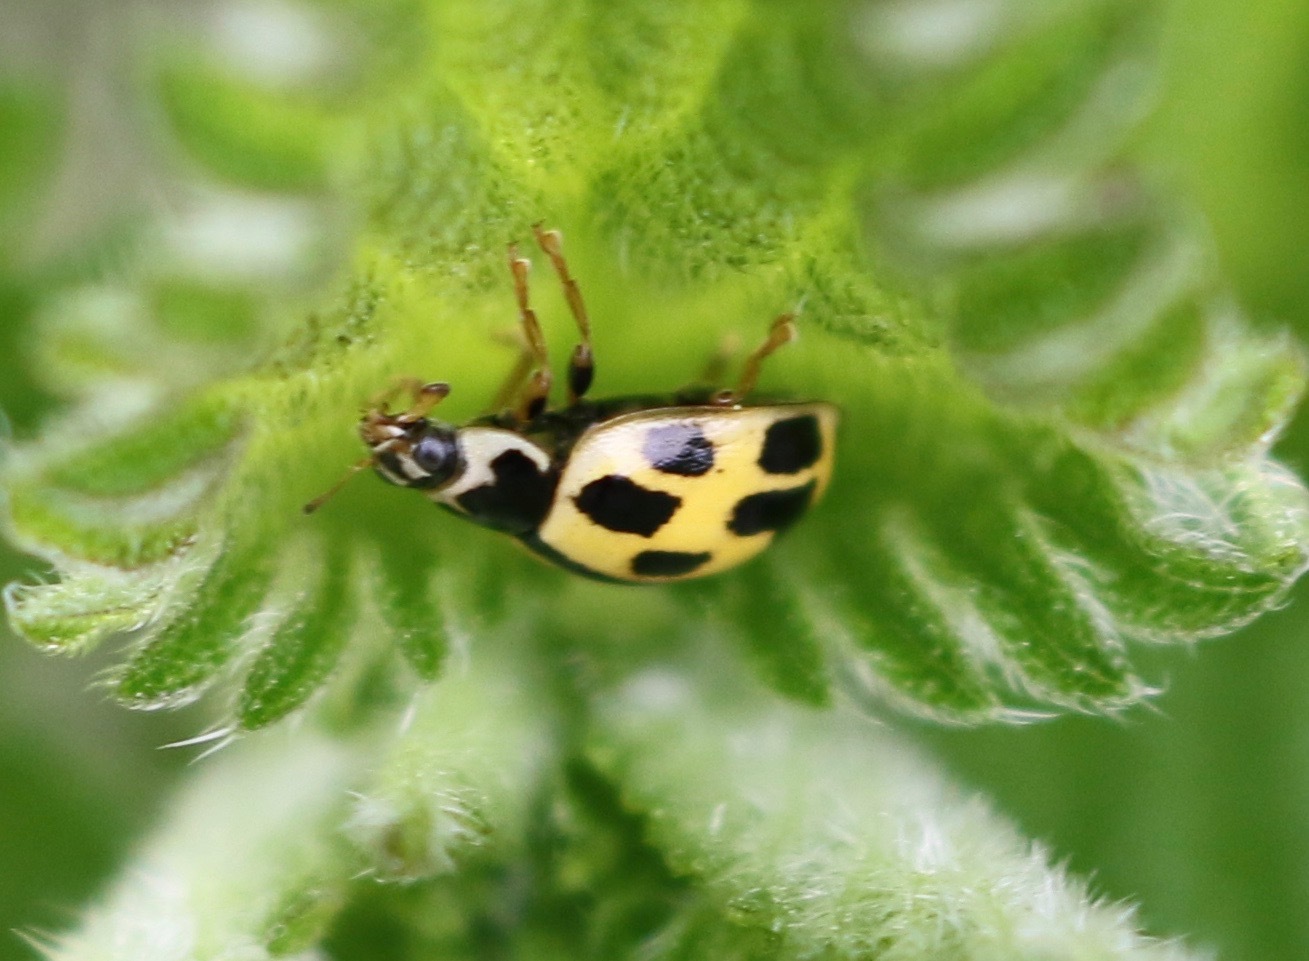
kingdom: Animalia
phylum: Arthropoda
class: Insecta
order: Coleoptera
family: Coccinellidae
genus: Propylaea
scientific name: Propylaea quatuordecimpunctata
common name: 14-spotted ladybird beetle
